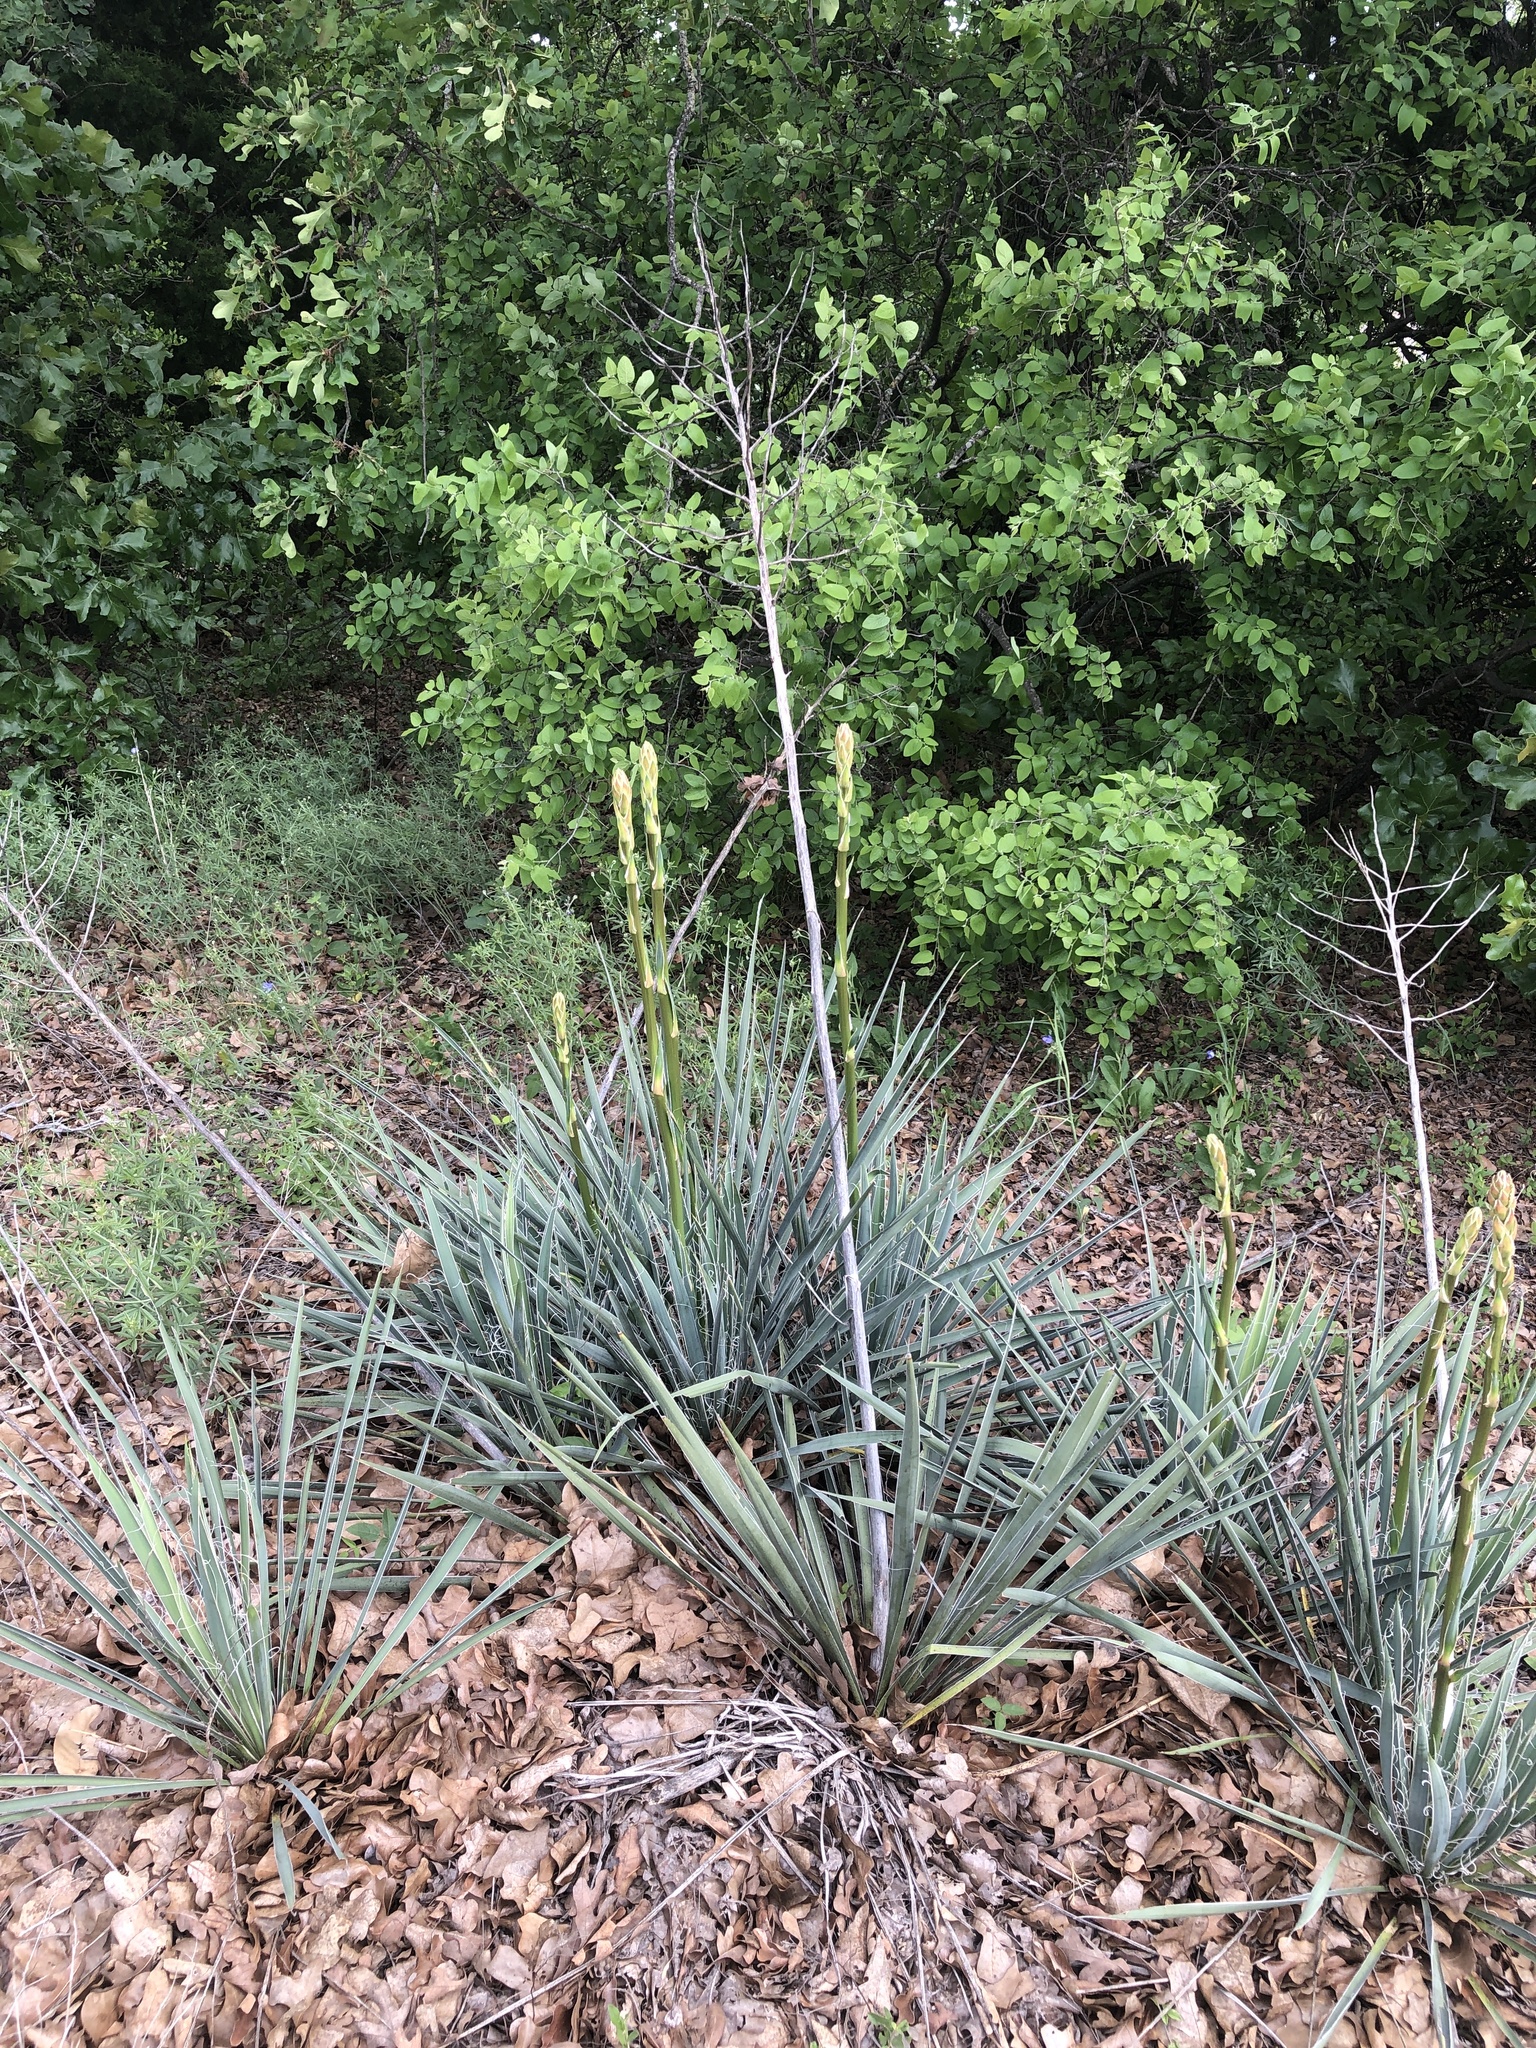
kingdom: Plantae
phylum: Tracheophyta
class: Liliopsida
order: Asparagales
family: Asparagaceae
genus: Yucca
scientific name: Yucca necopina
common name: Glen rose yucca
